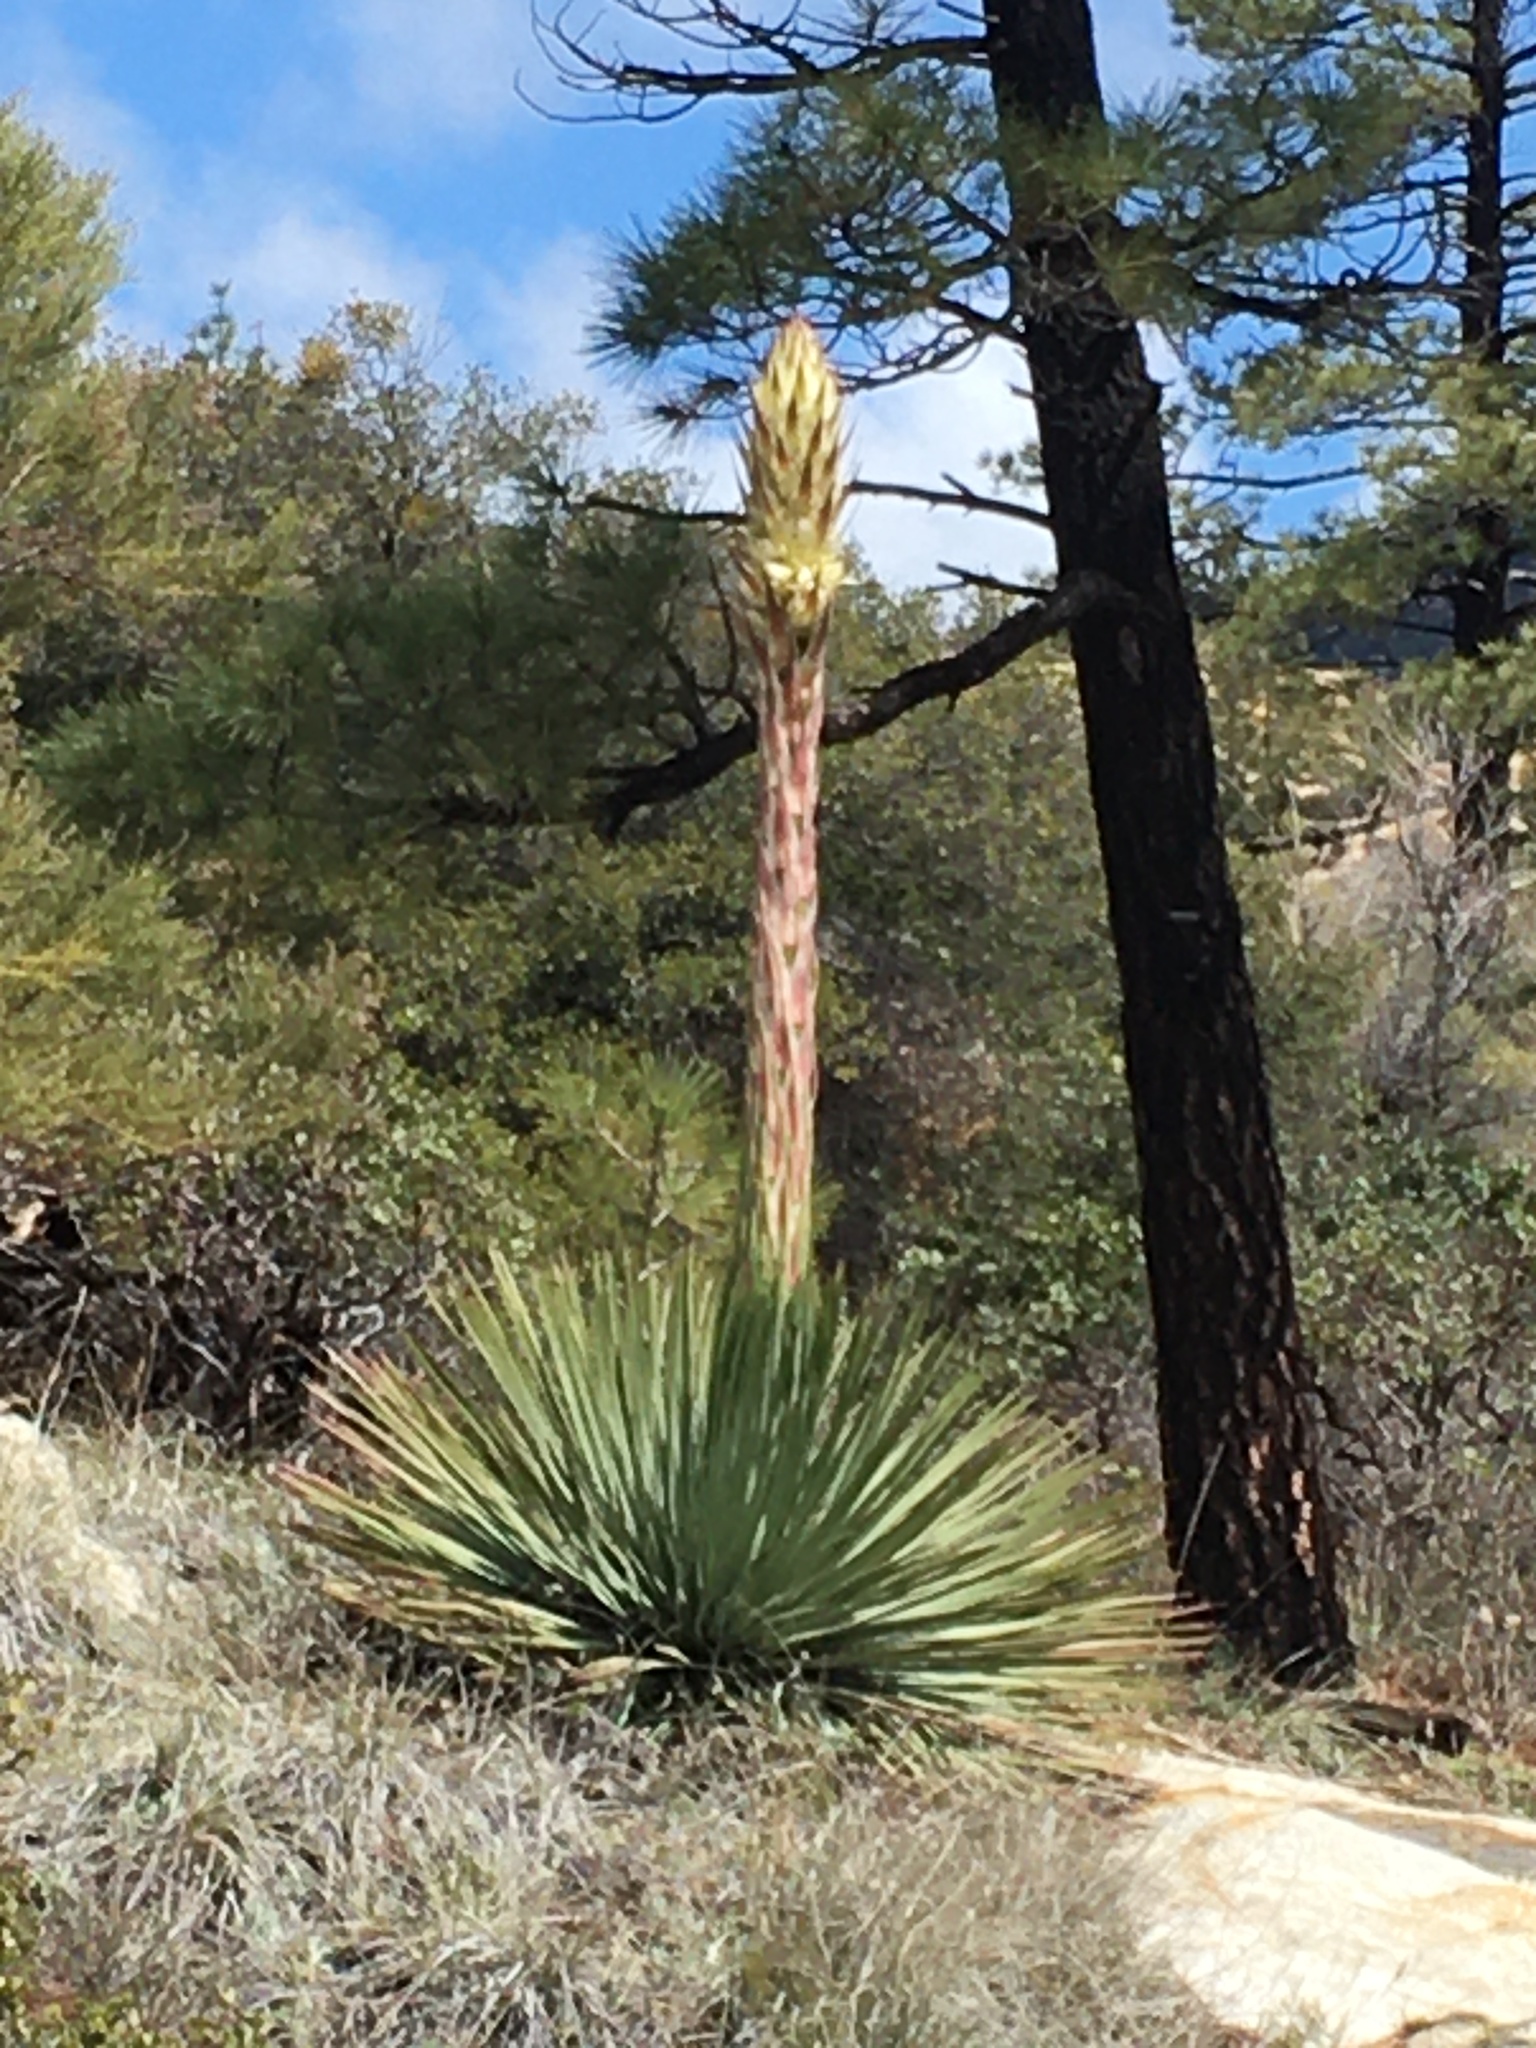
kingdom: Plantae
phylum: Tracheophyta
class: Liliopsida
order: Asparagales
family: Asparagaceae
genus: Hesperoyucca
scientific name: Hesperoyucca whipplei
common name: Our lord's-candle
